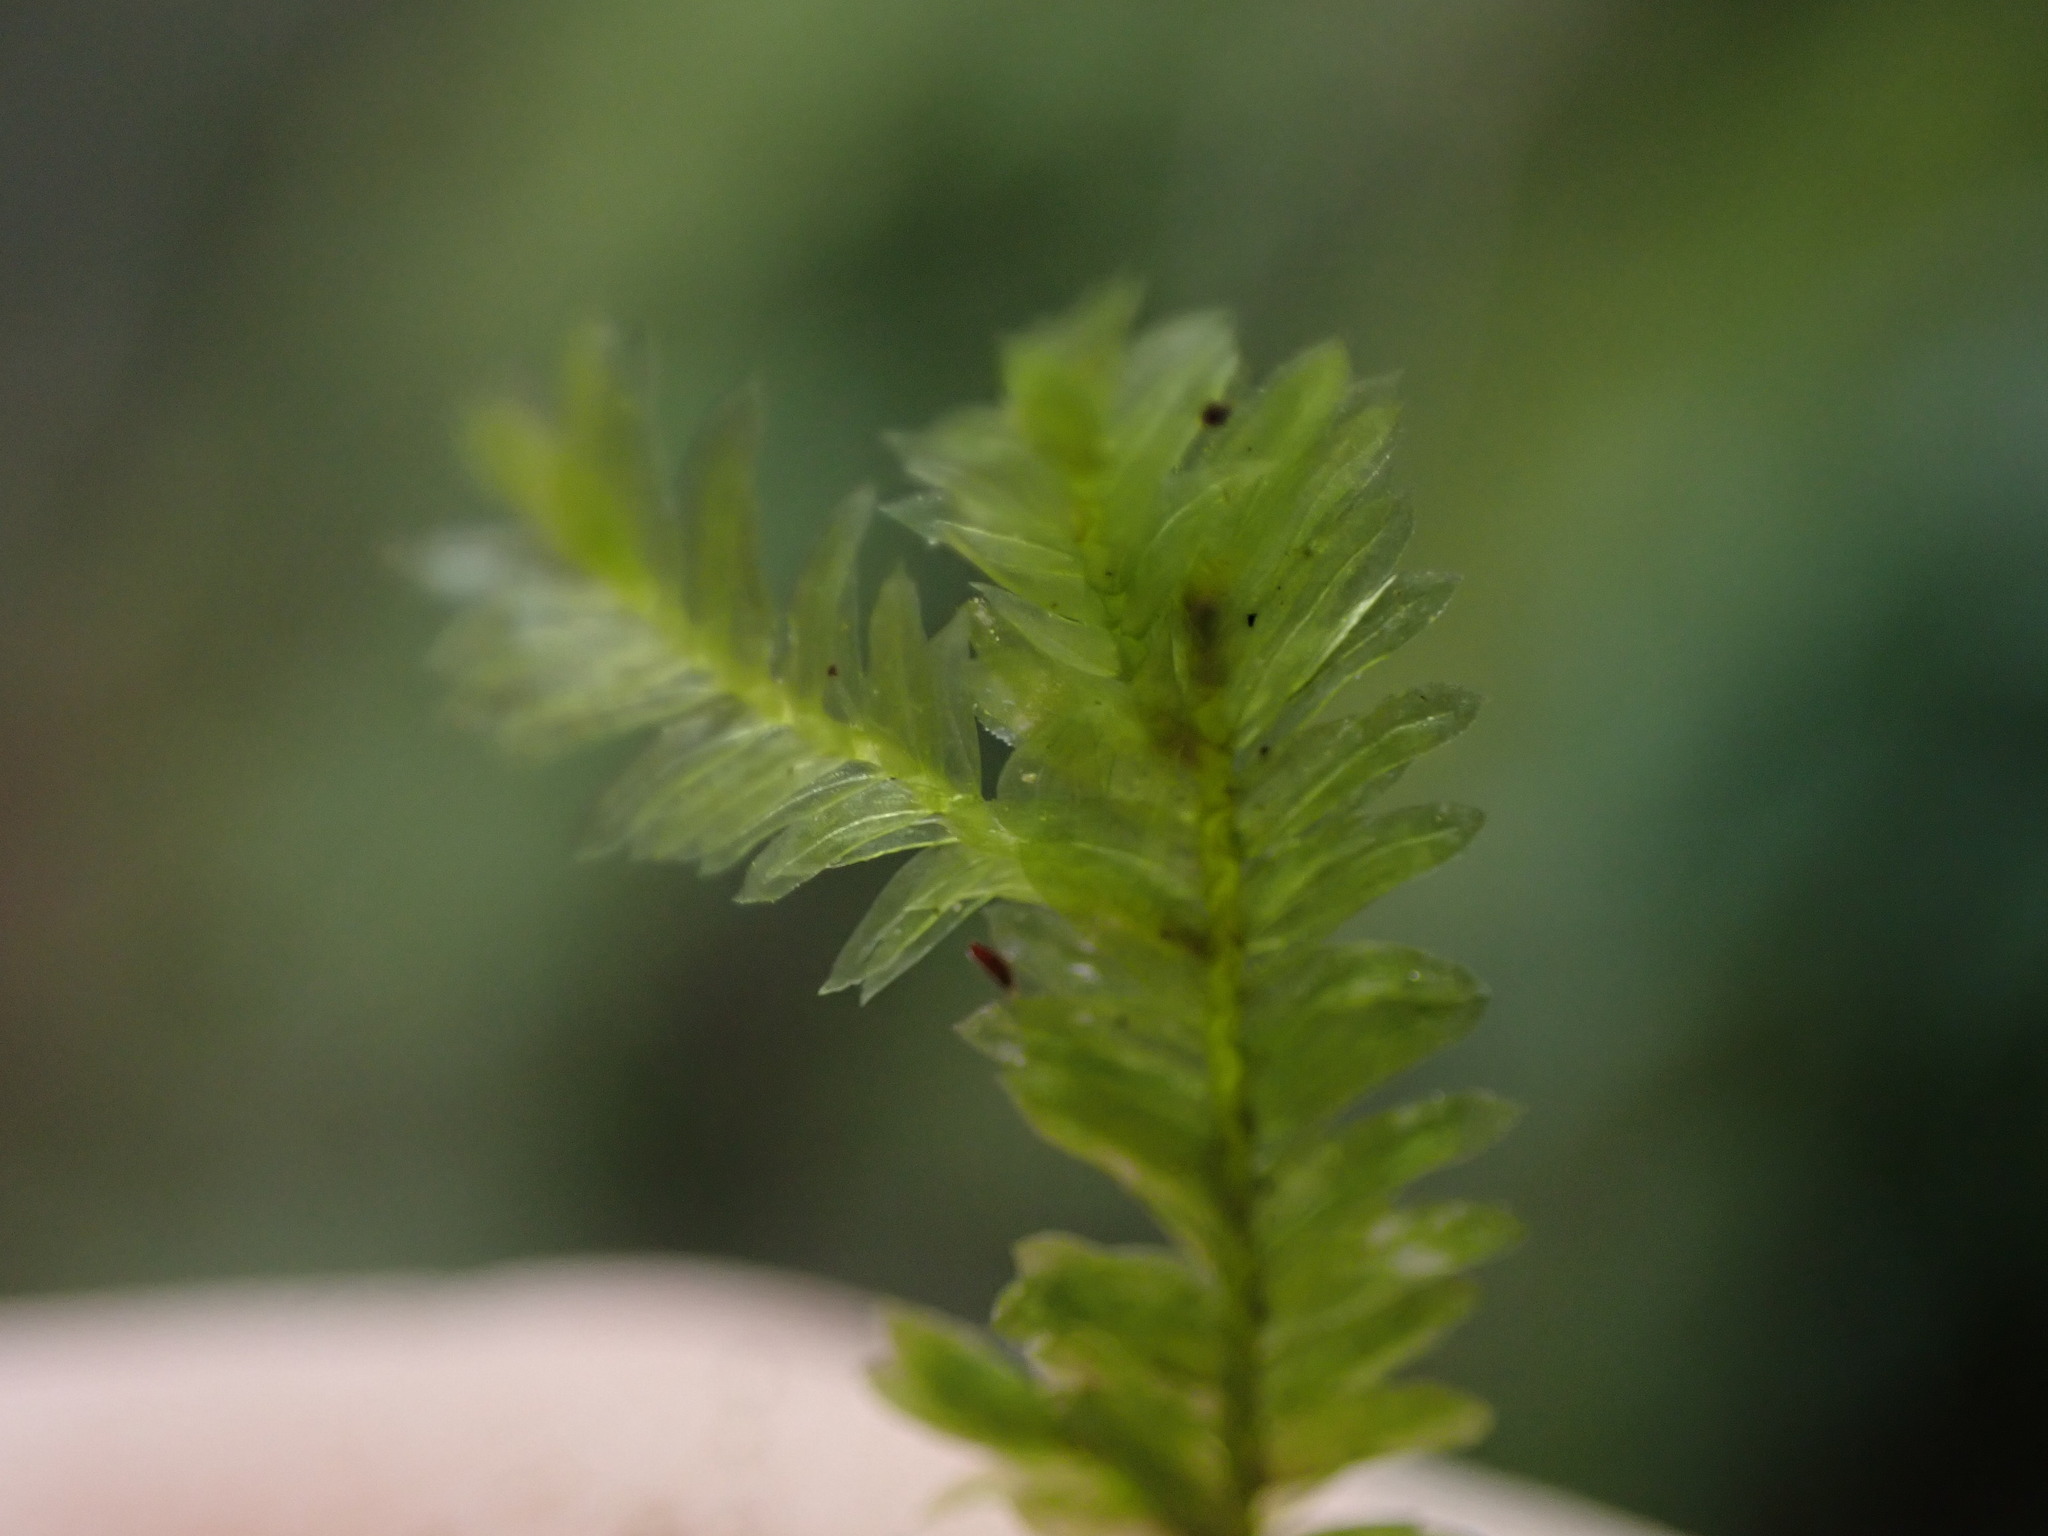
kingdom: Plantae
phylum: Bryophyta
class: Bryopsida
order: Hypnales
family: Neckeraceae
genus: Dannorrisia
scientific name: Dannorrisia bigelovii
